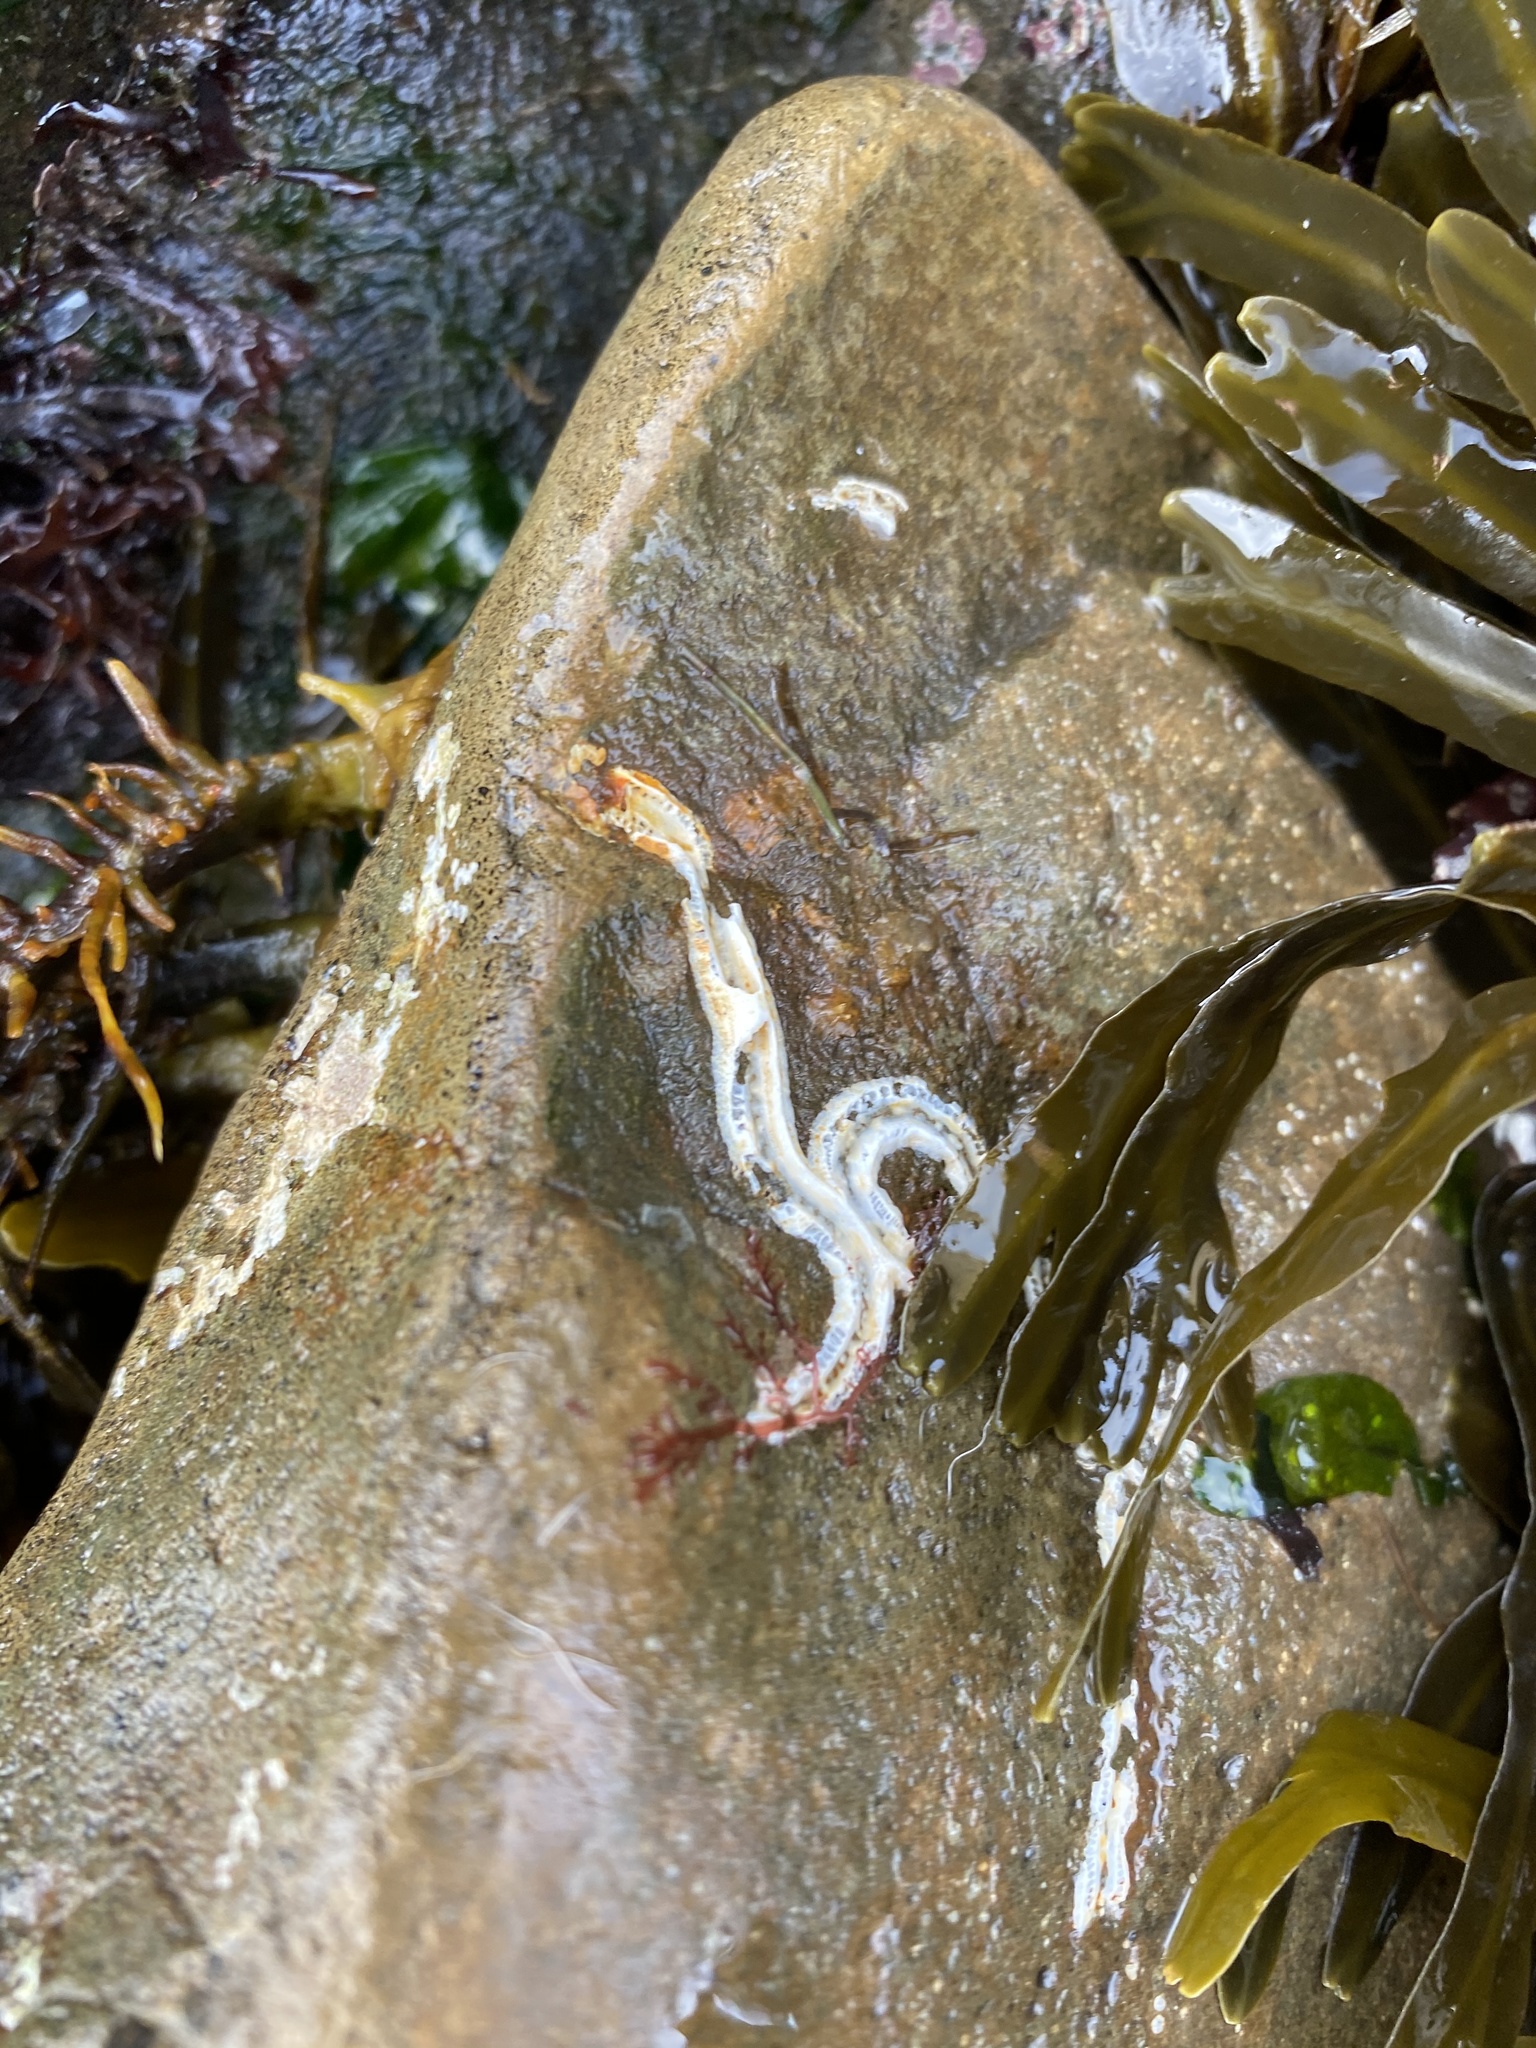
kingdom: Animalia
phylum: Annelida
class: Polychaeta
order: Sabellida
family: Serpulidae
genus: Spirobranchus
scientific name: Spirobranchus triqueter
